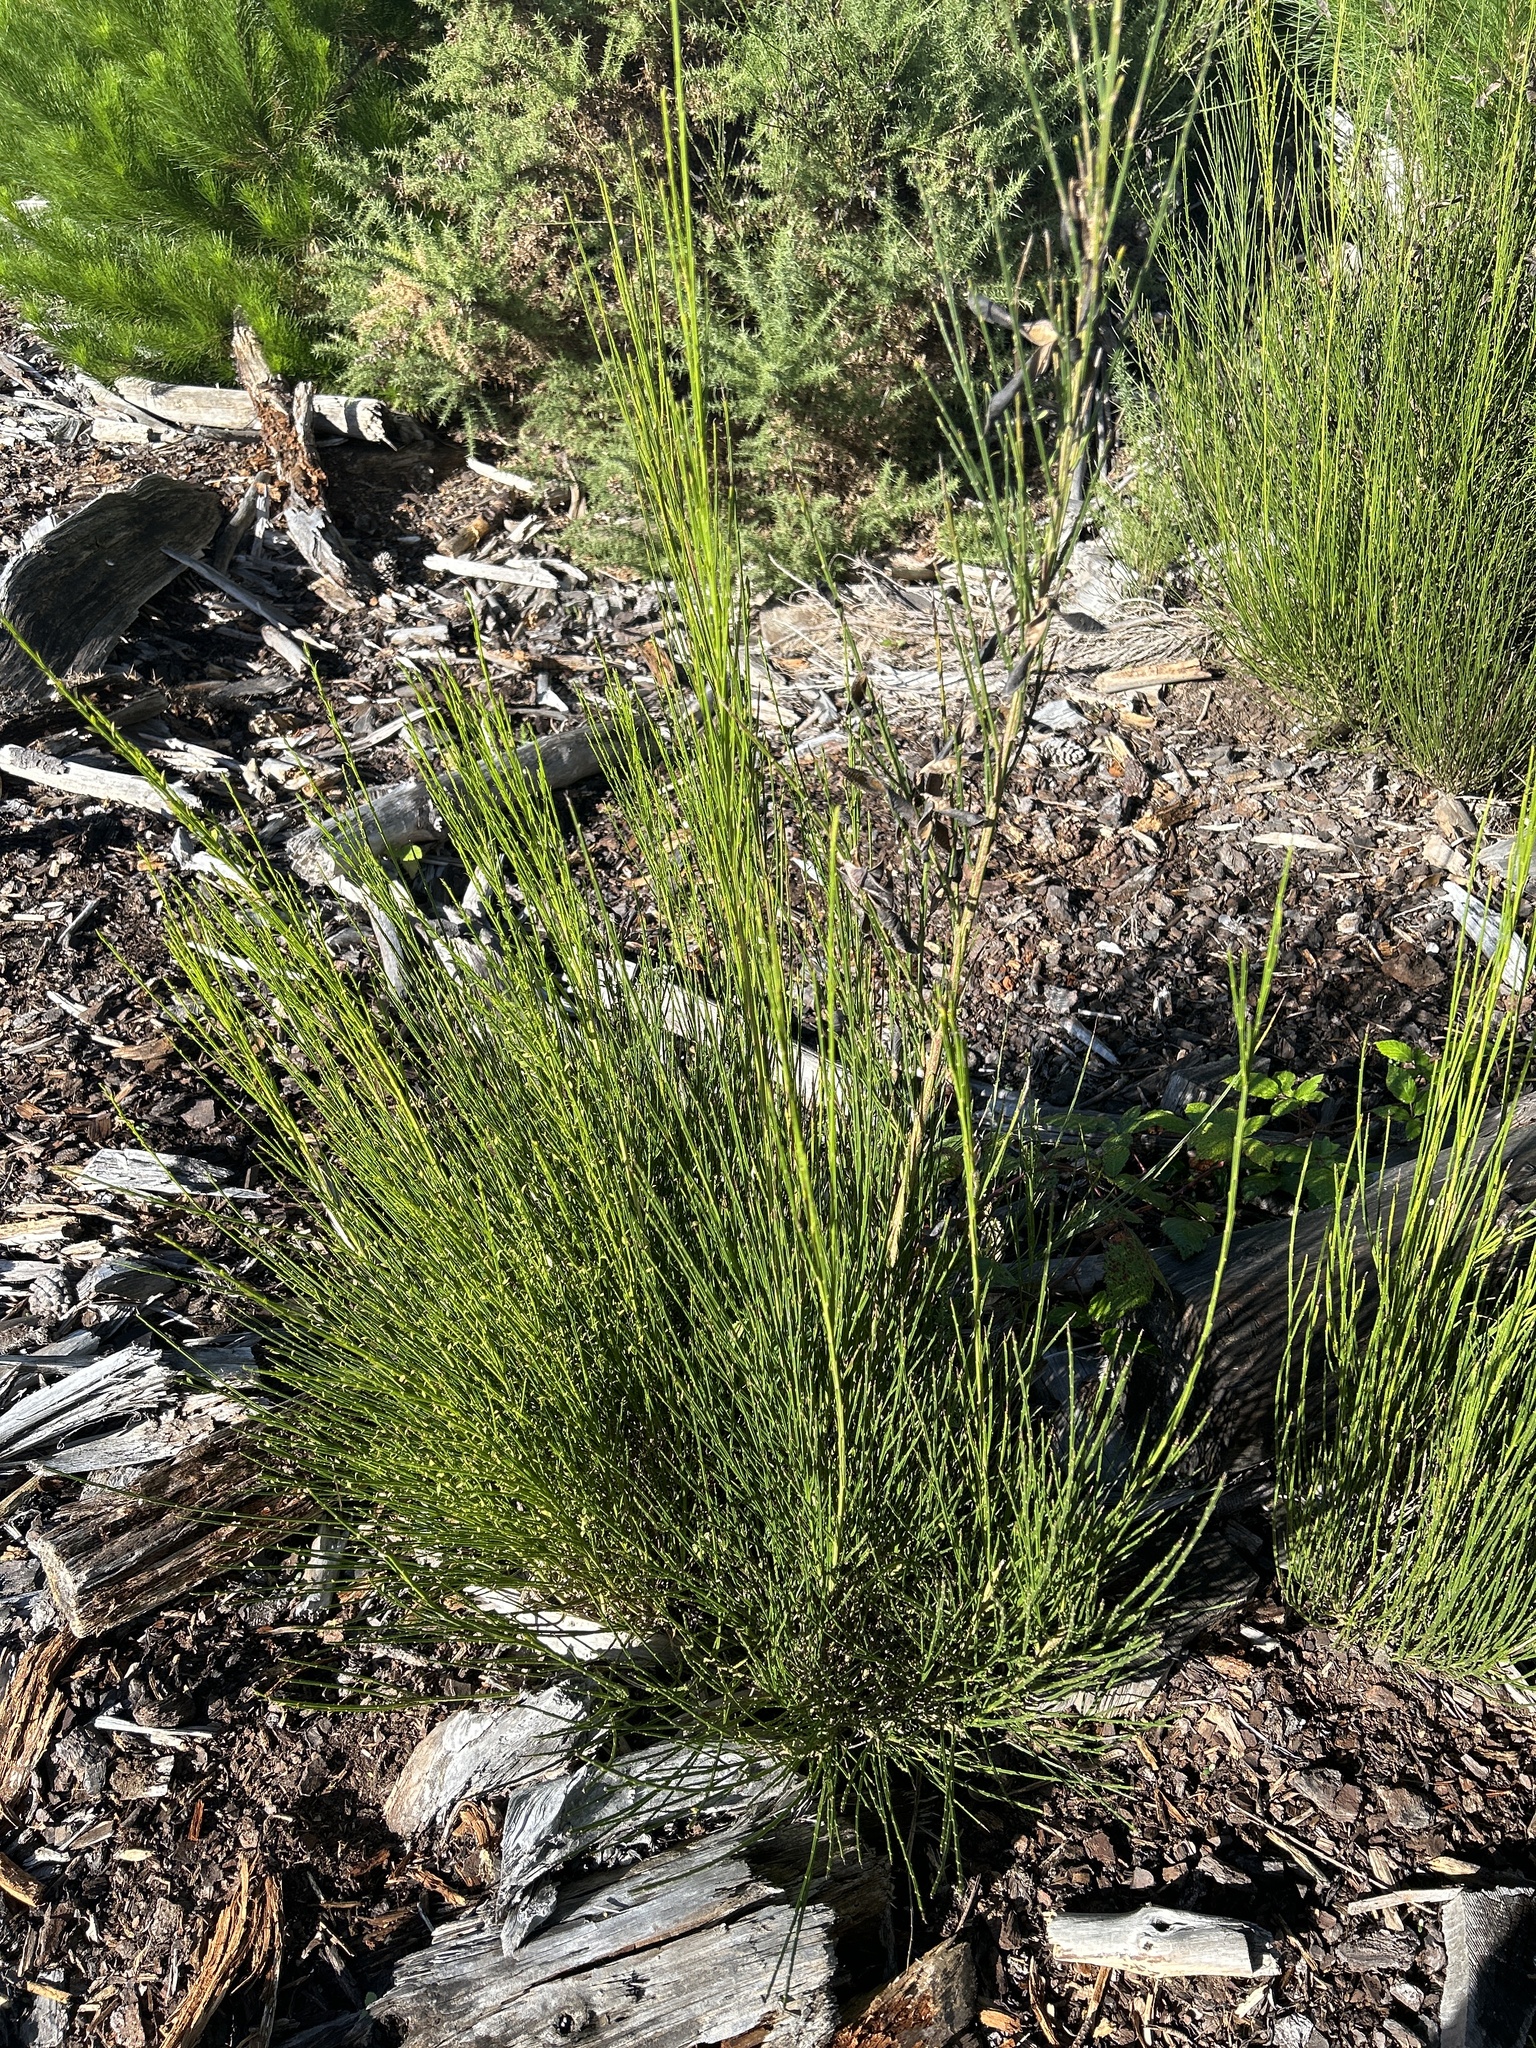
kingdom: Plantae
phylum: Tracheophyta
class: Magnoliopsida
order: Fabales
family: Fabaceae
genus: Cytisus
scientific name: Cytisus scoparius
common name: Scotch broom
